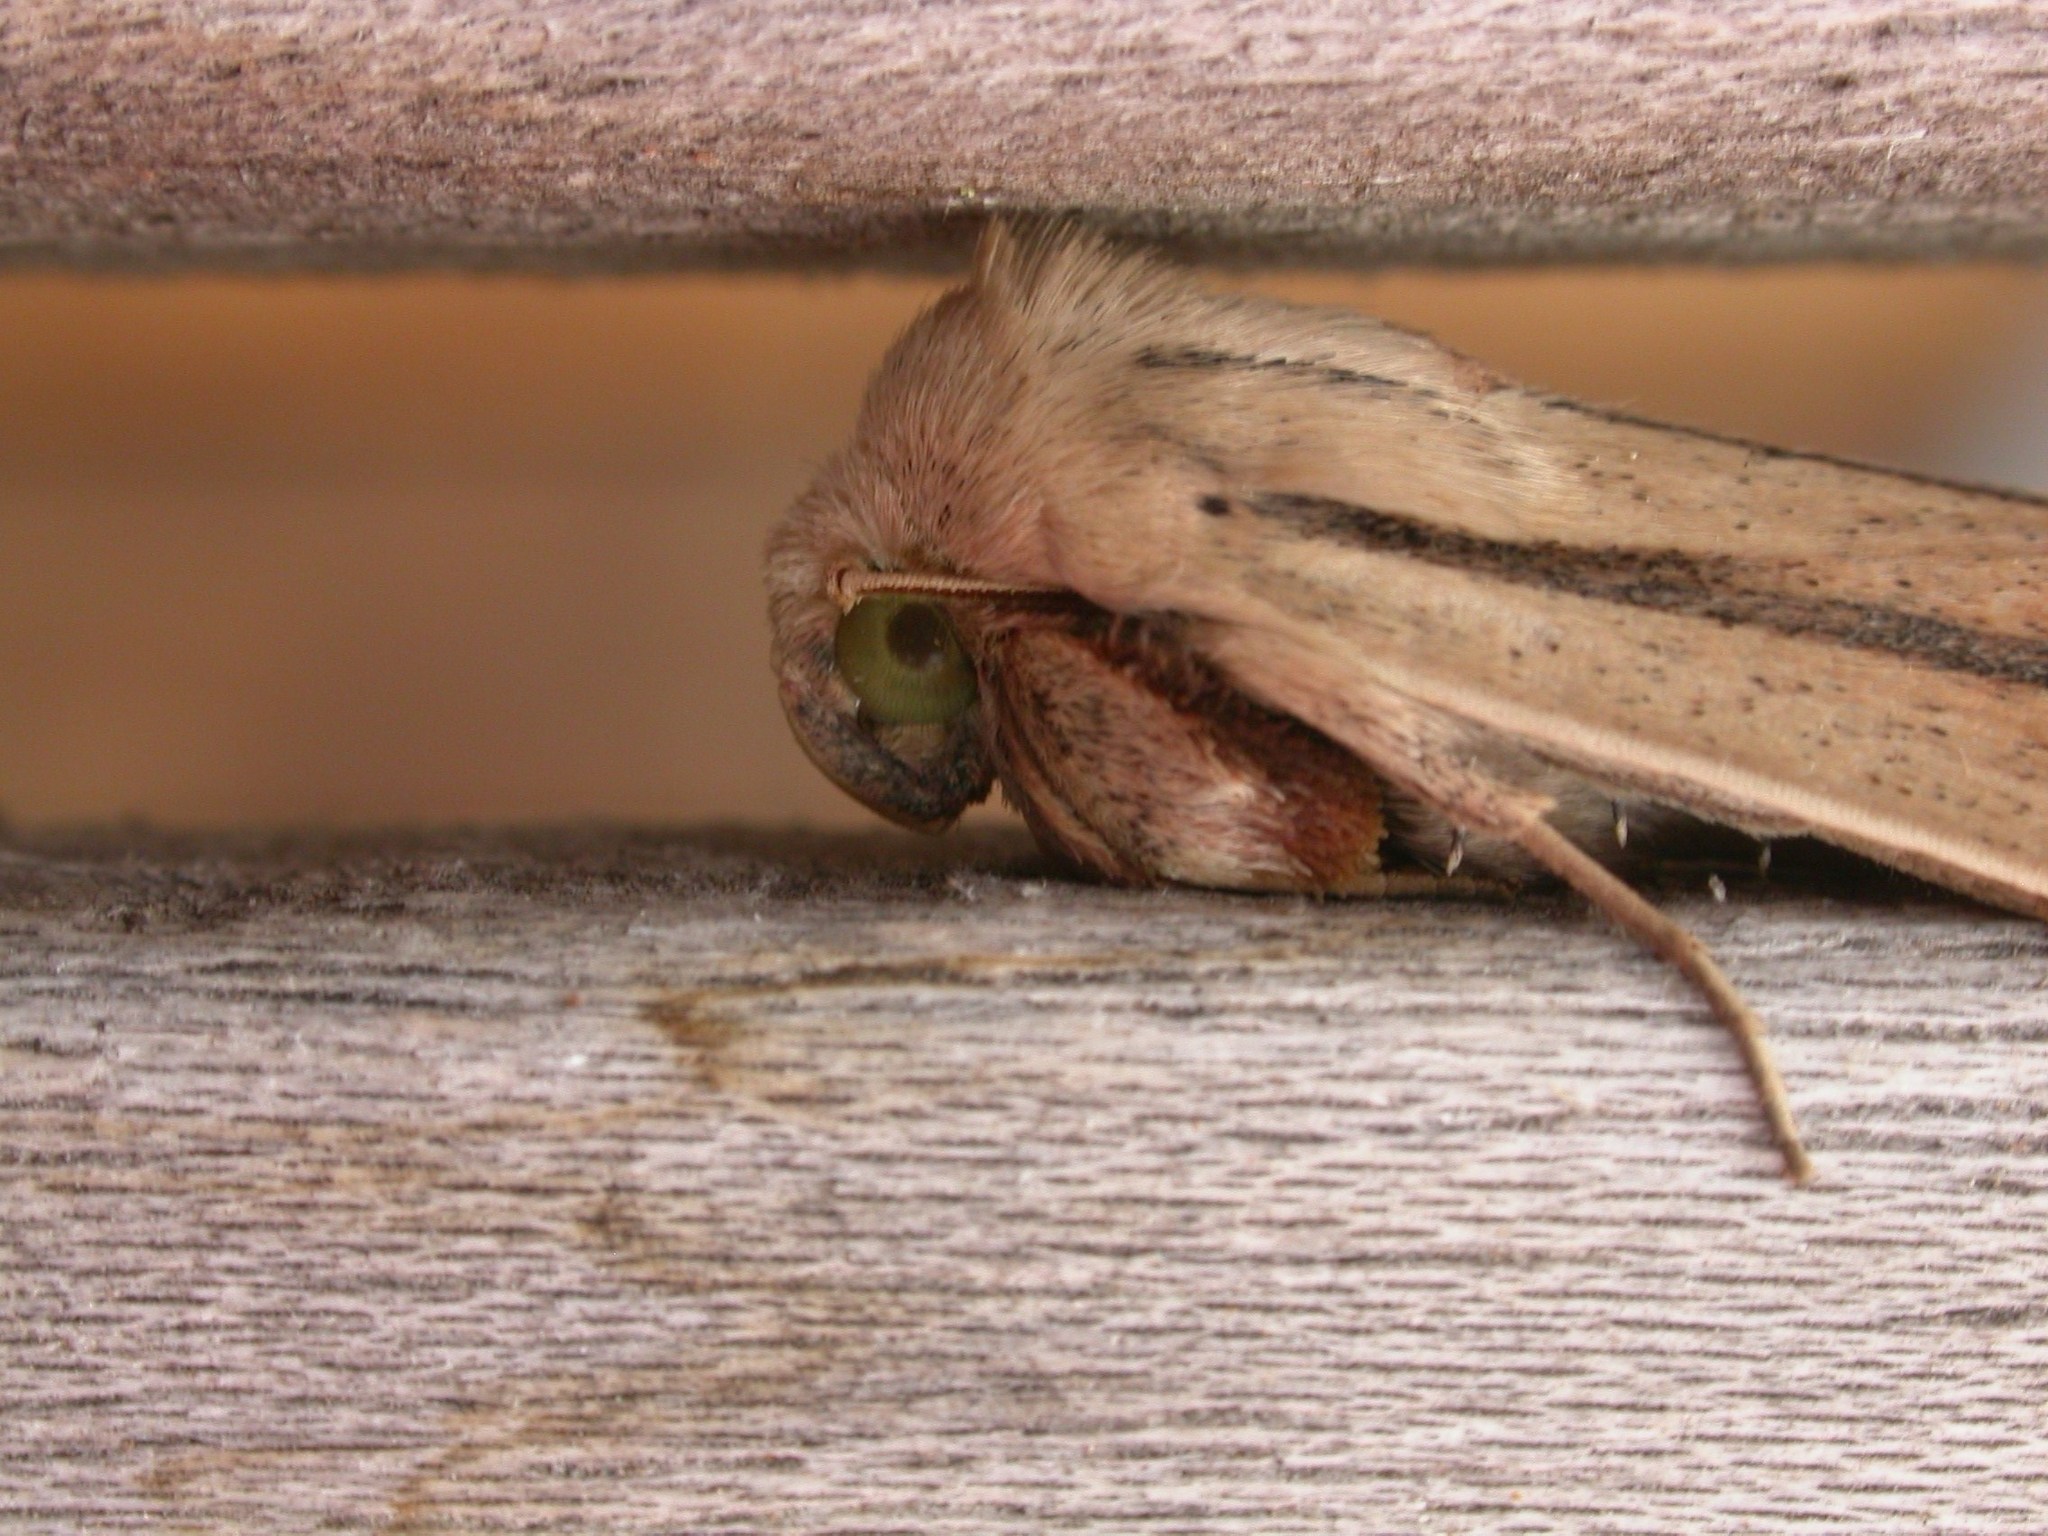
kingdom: Animalia
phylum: Arthropoda
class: Insecta
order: Lepidoptera
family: Noctuidae
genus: Leucania
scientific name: Leucania diatrecta
